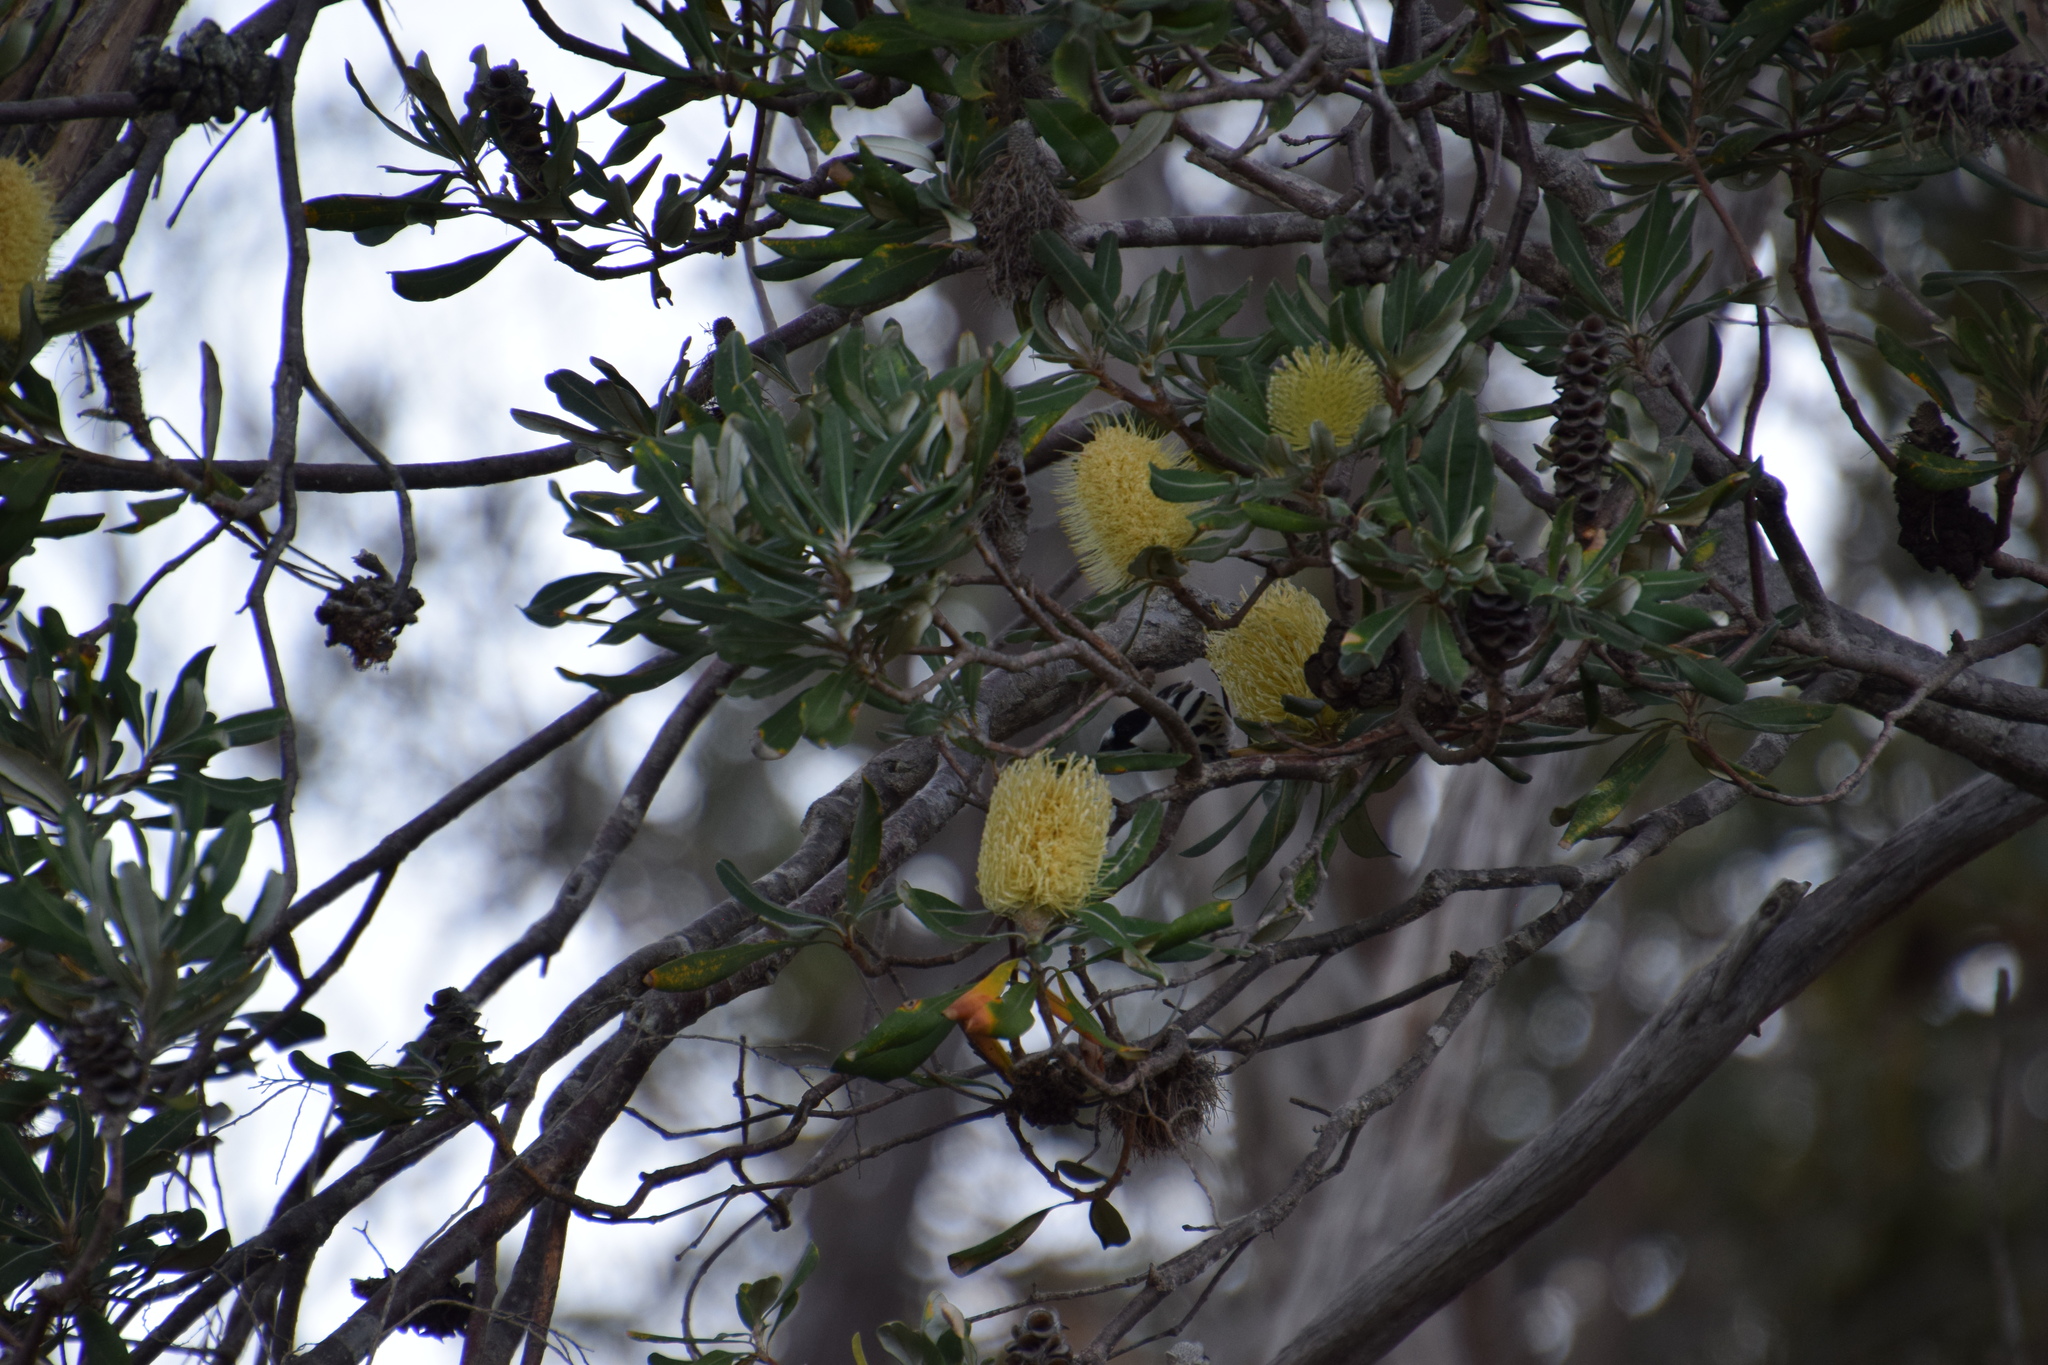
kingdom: Animalia
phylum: Chordata
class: Aves
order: Passeriformes
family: Meliphagidae
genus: Phylidonyris
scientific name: Phylidonyris niger
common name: White-cheeked honeyeater
